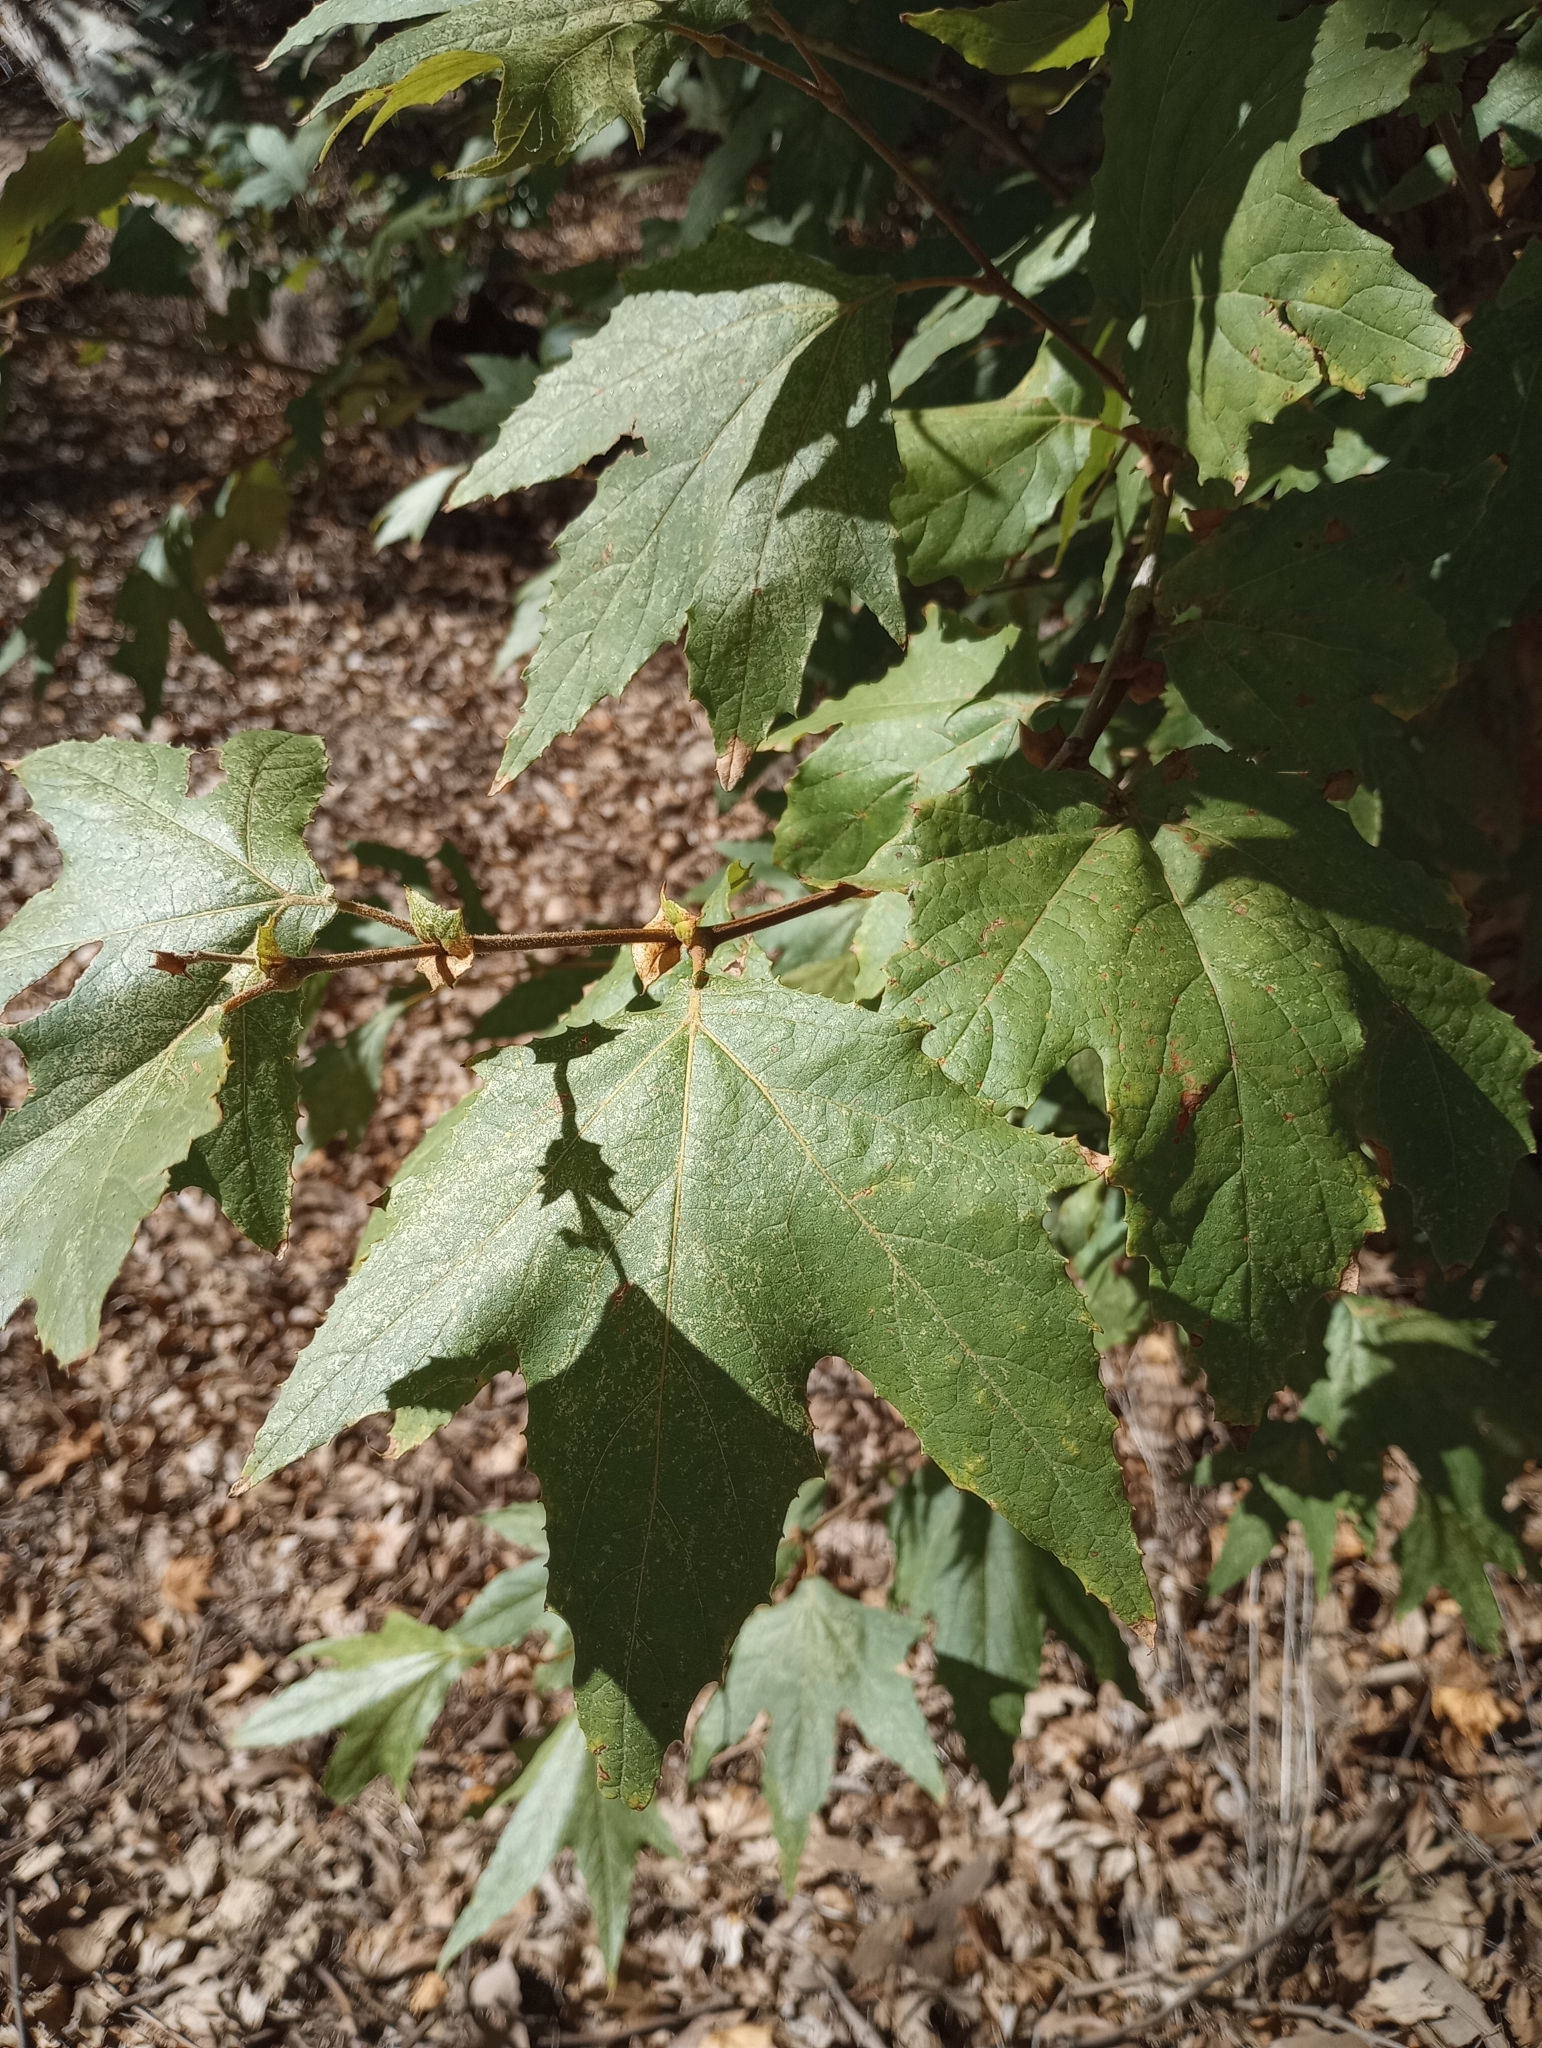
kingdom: Plantae
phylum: Tracheophyta
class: Magnoliopsida
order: Proteales
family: Platanaceae
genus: Platanus
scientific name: Platanus wrightii
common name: Arizona sycamore
